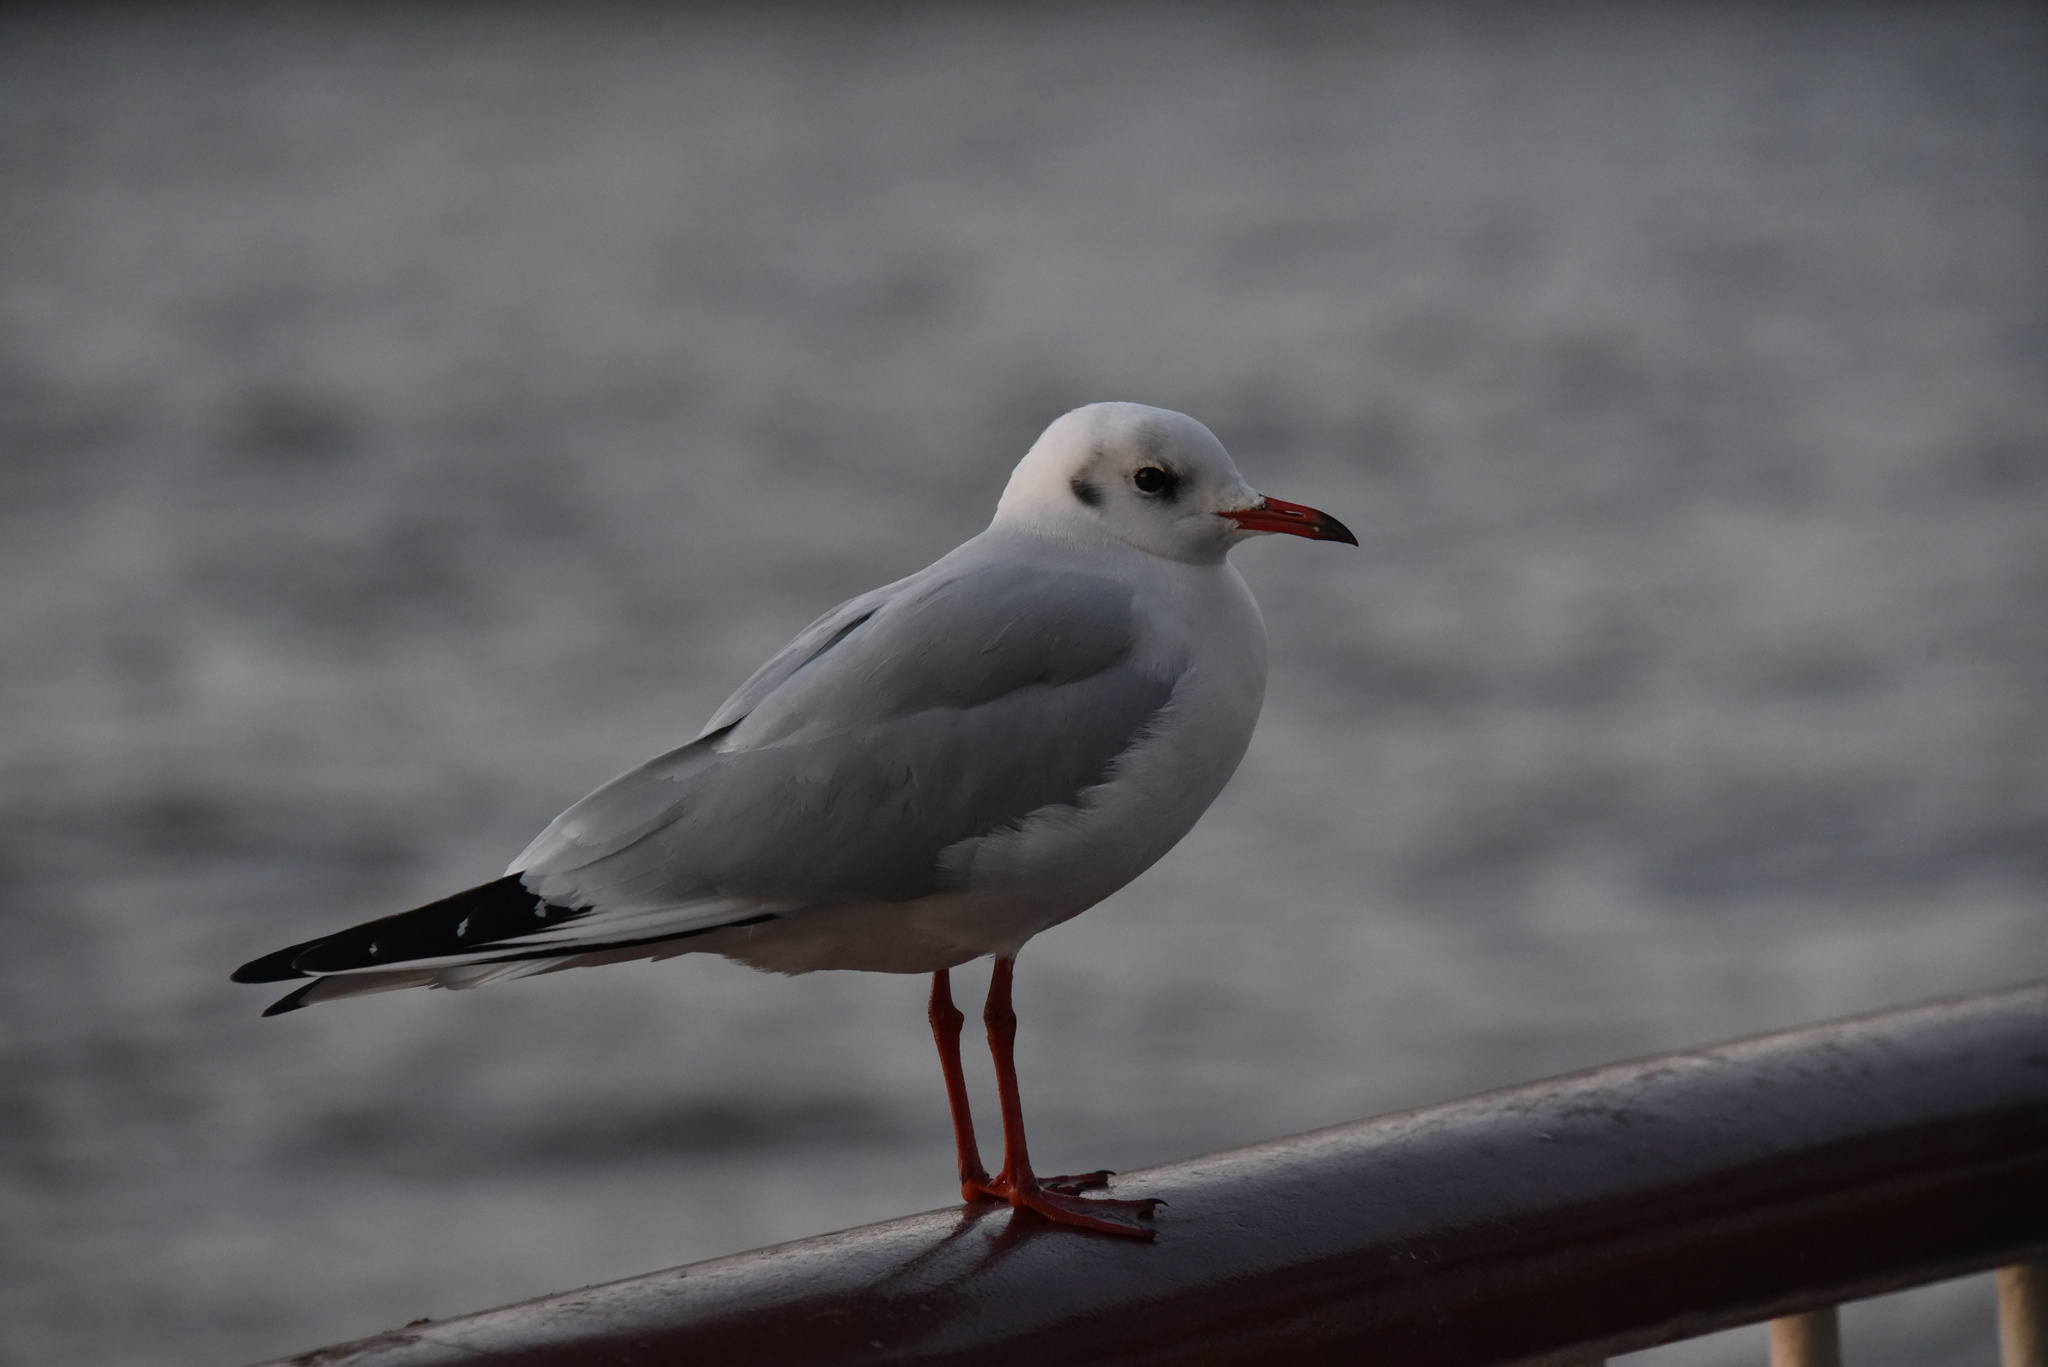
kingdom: Animalia
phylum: Chordata
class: Aves
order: Charadriiformes
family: Laridae
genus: Chroicocephalus
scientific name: Chroicocephalus ridibundus
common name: Black-headed gull
